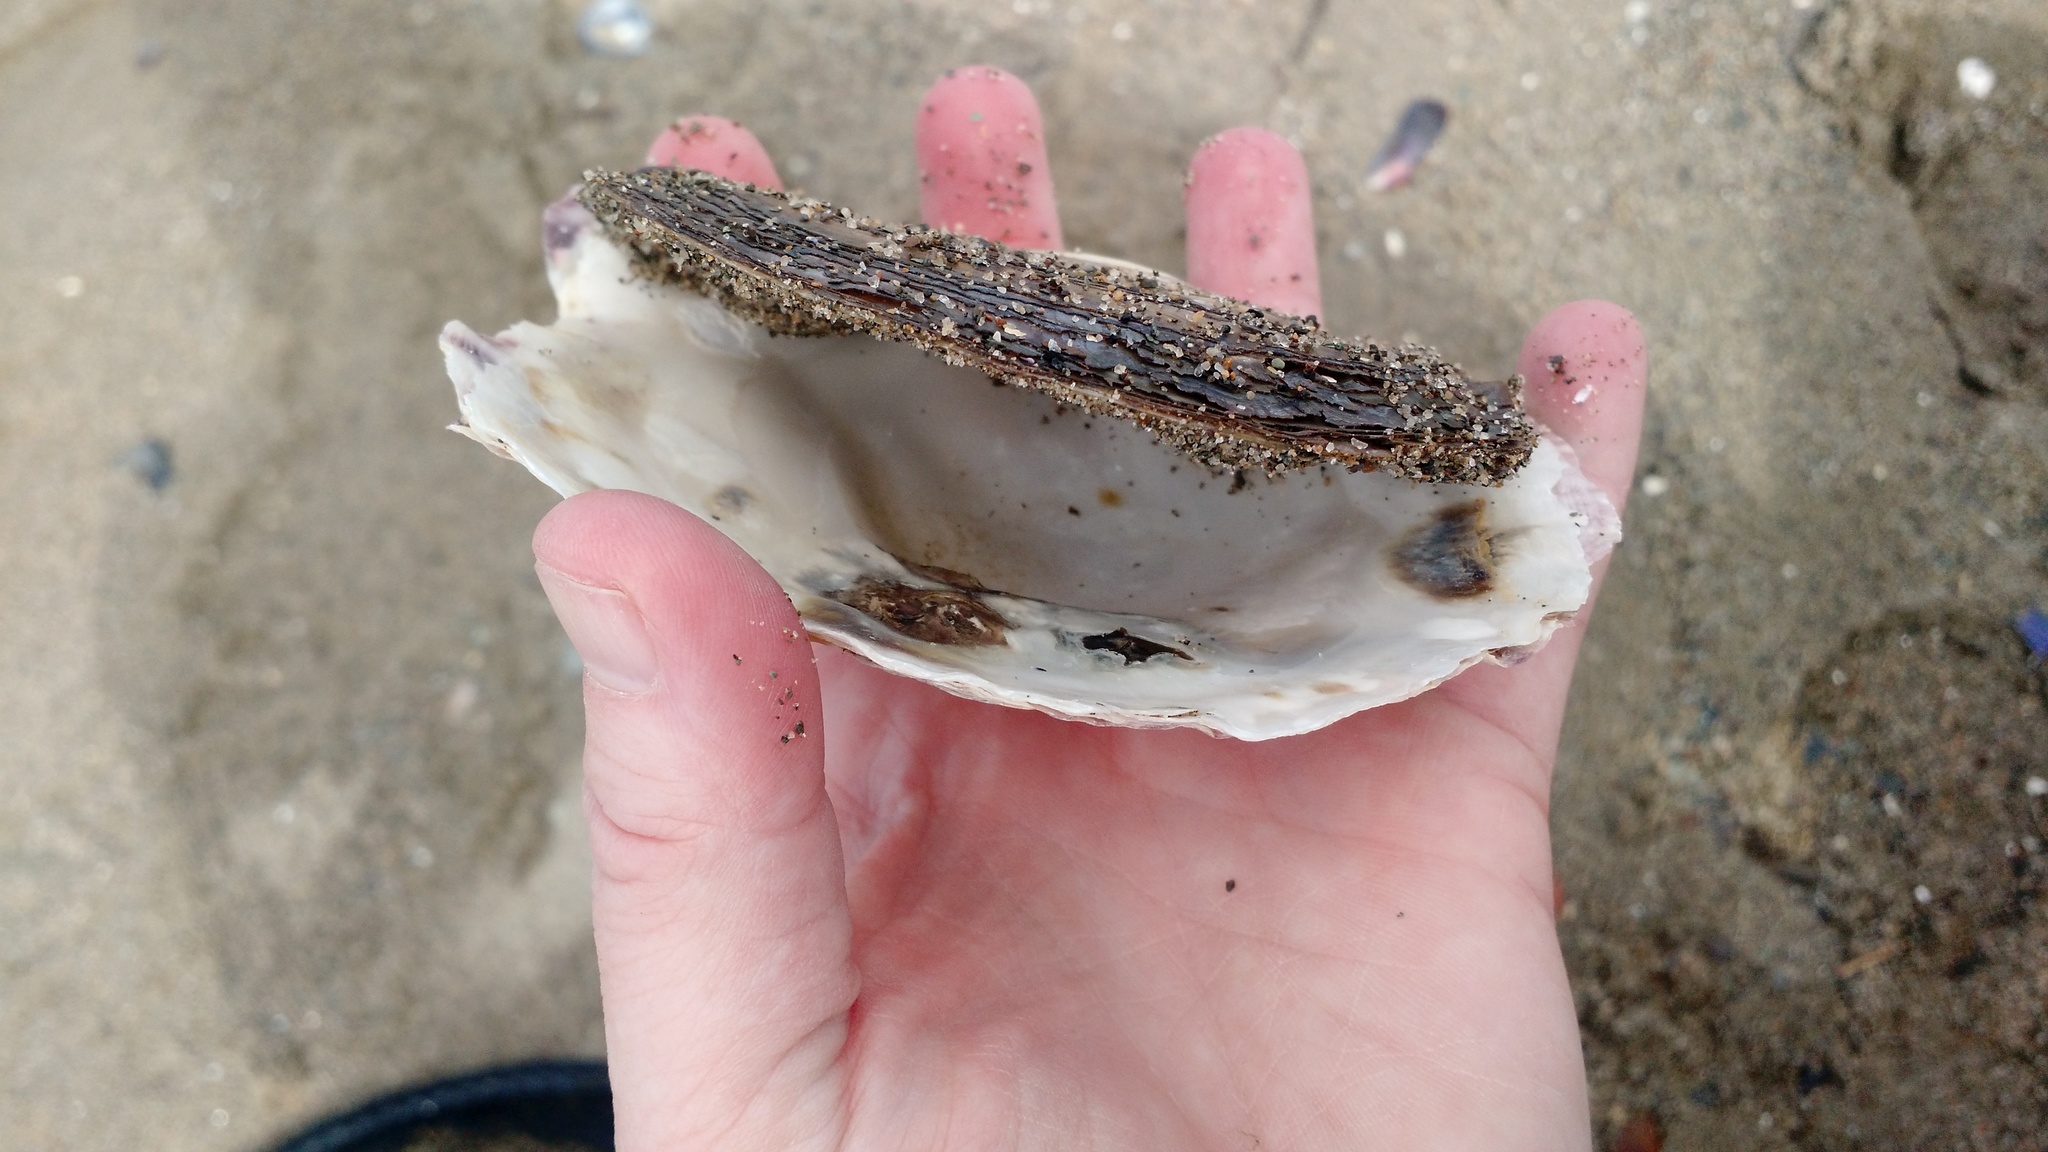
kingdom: Animalia
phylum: Mollusca
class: Bivalvia
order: Ostreida
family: Ostreidae
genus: Ostrea
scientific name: Ostrea edulis
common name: Flat oyster
